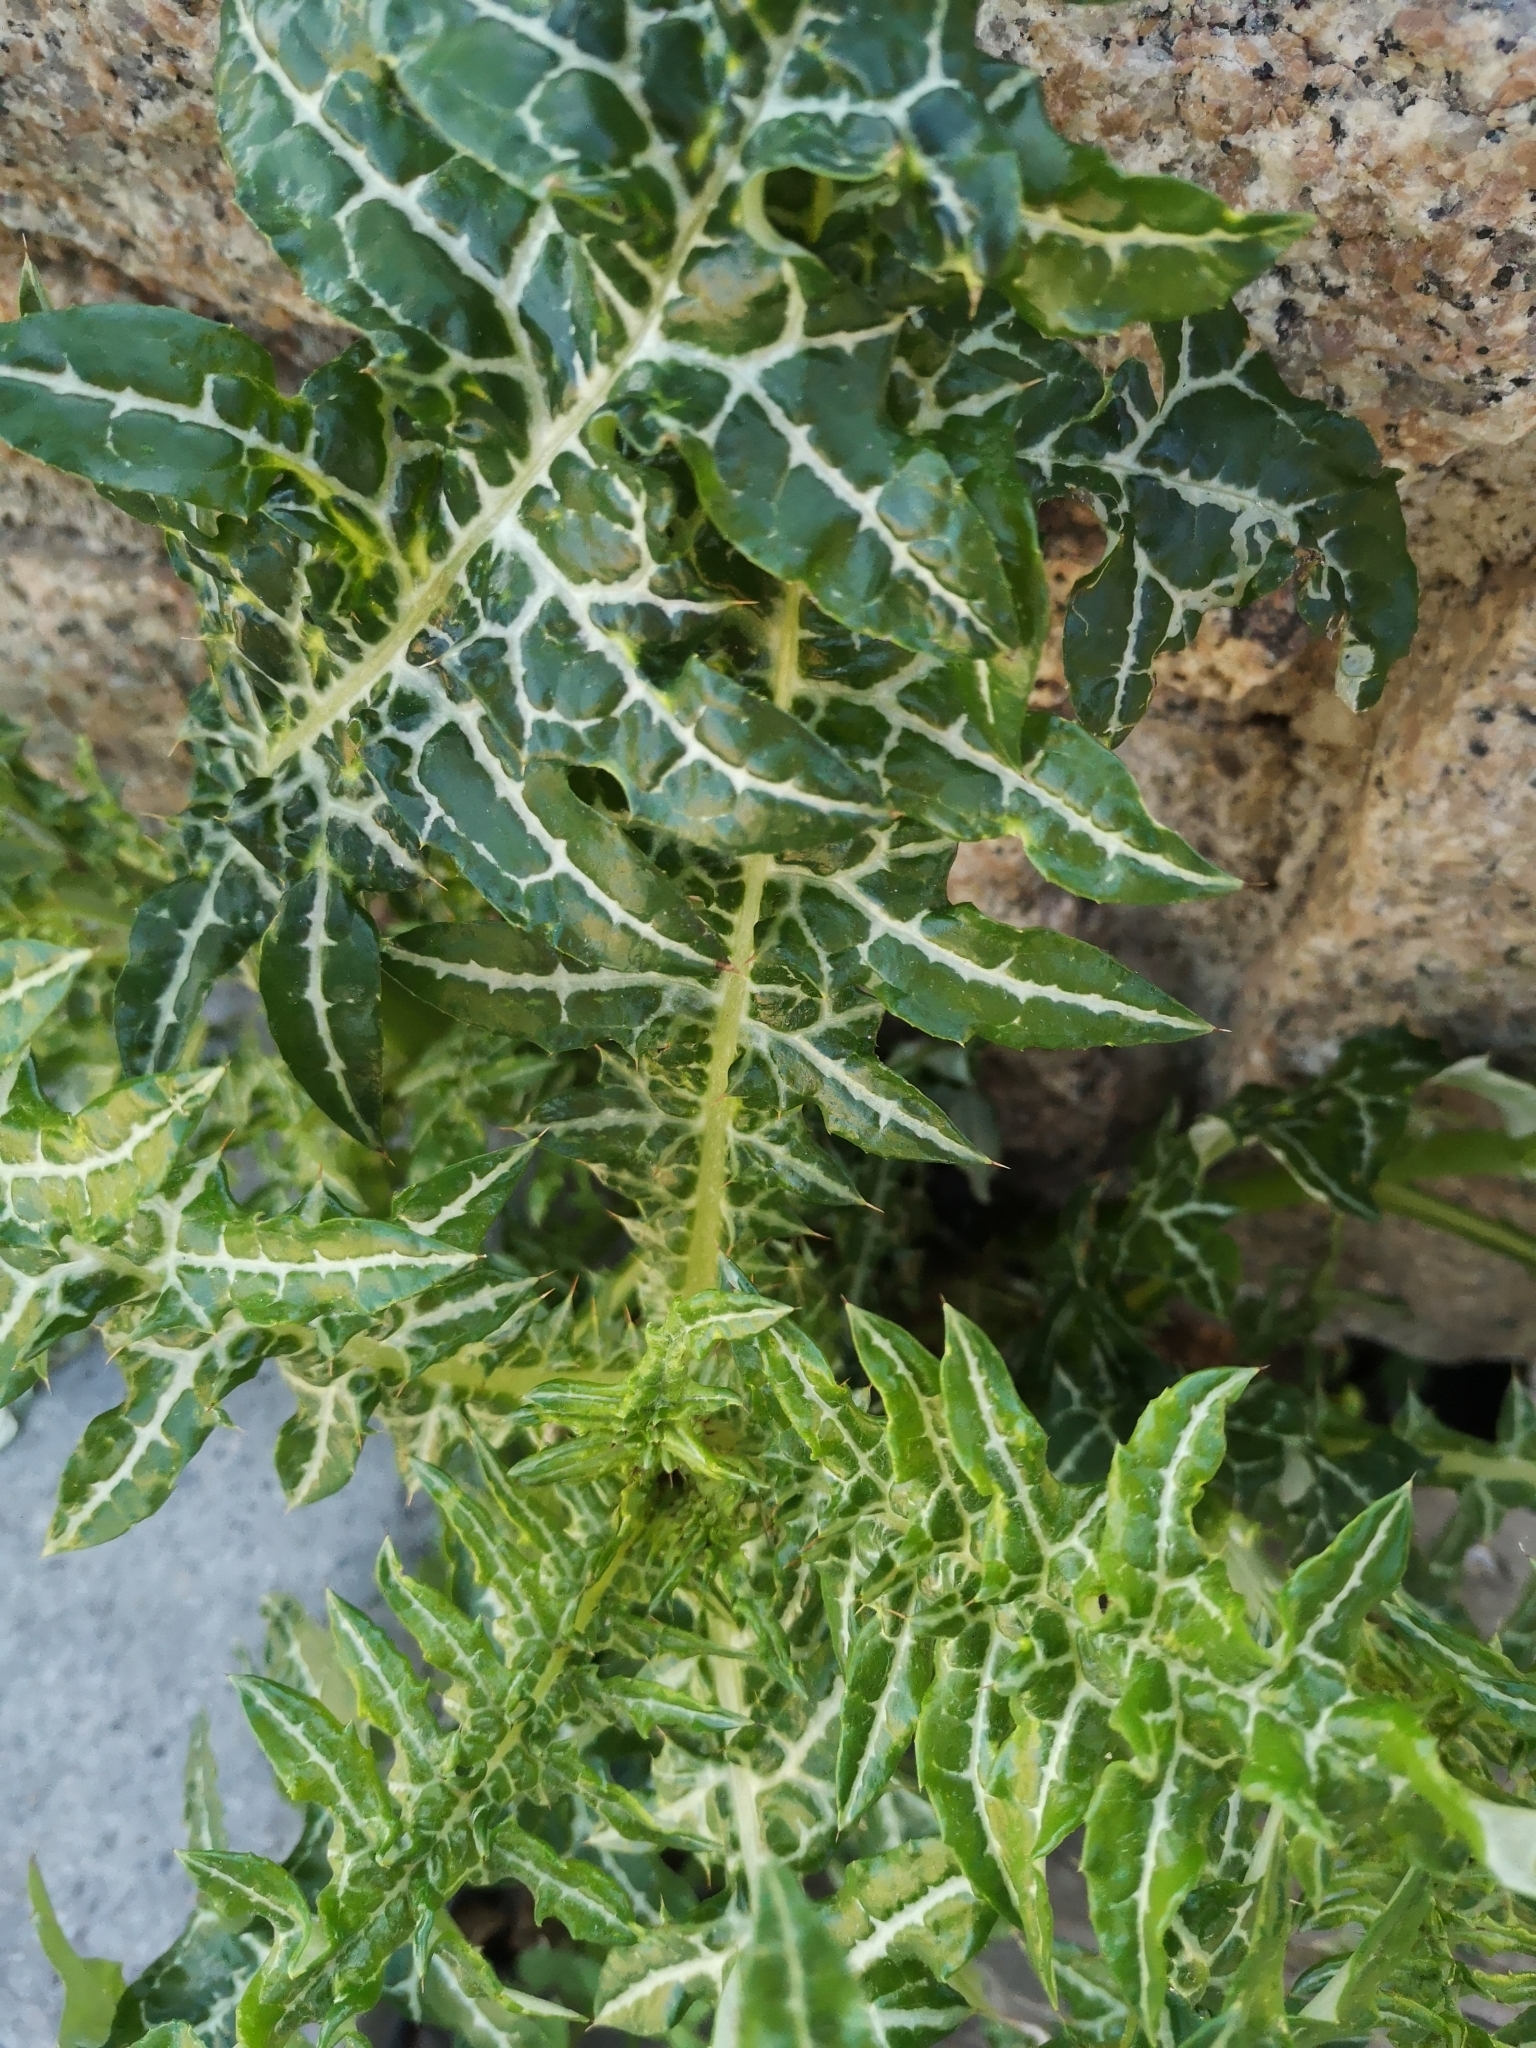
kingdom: Plantae
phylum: Tracheophyta
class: Magnoliopsida
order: Asterales
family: Asteraceae
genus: Galactites
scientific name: Galactites tomentosa
